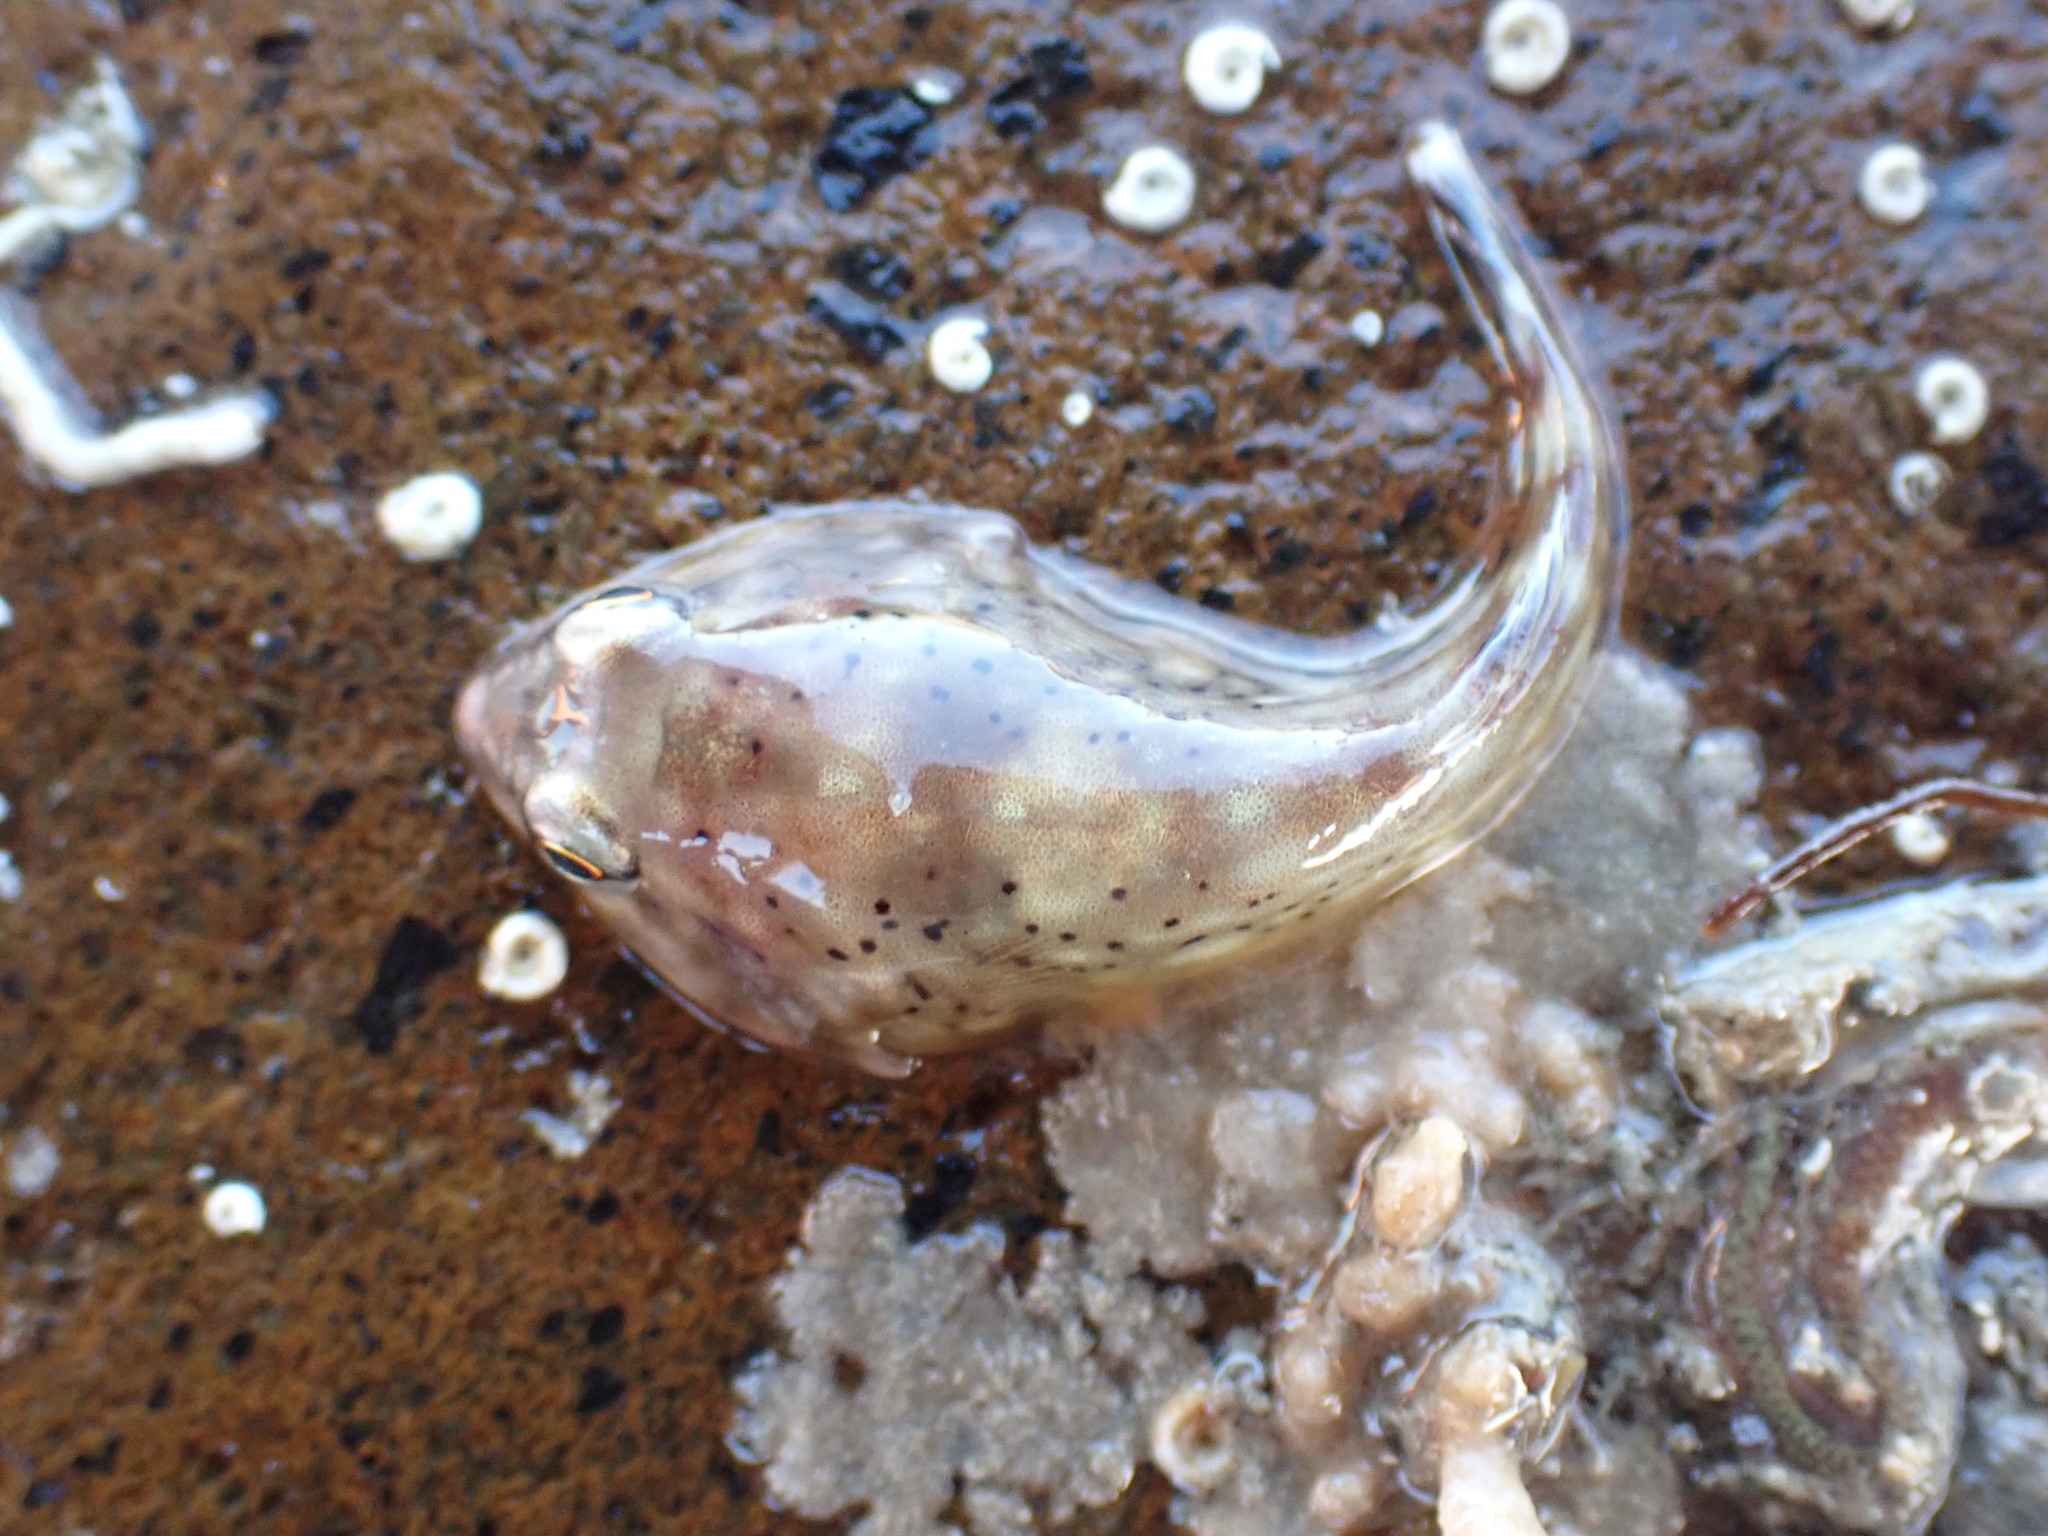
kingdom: Animalia
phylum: Chordata
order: Gobiesociformes
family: Gobiesocidae
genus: Diplocrepis
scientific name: Diplocrepis puniceus
